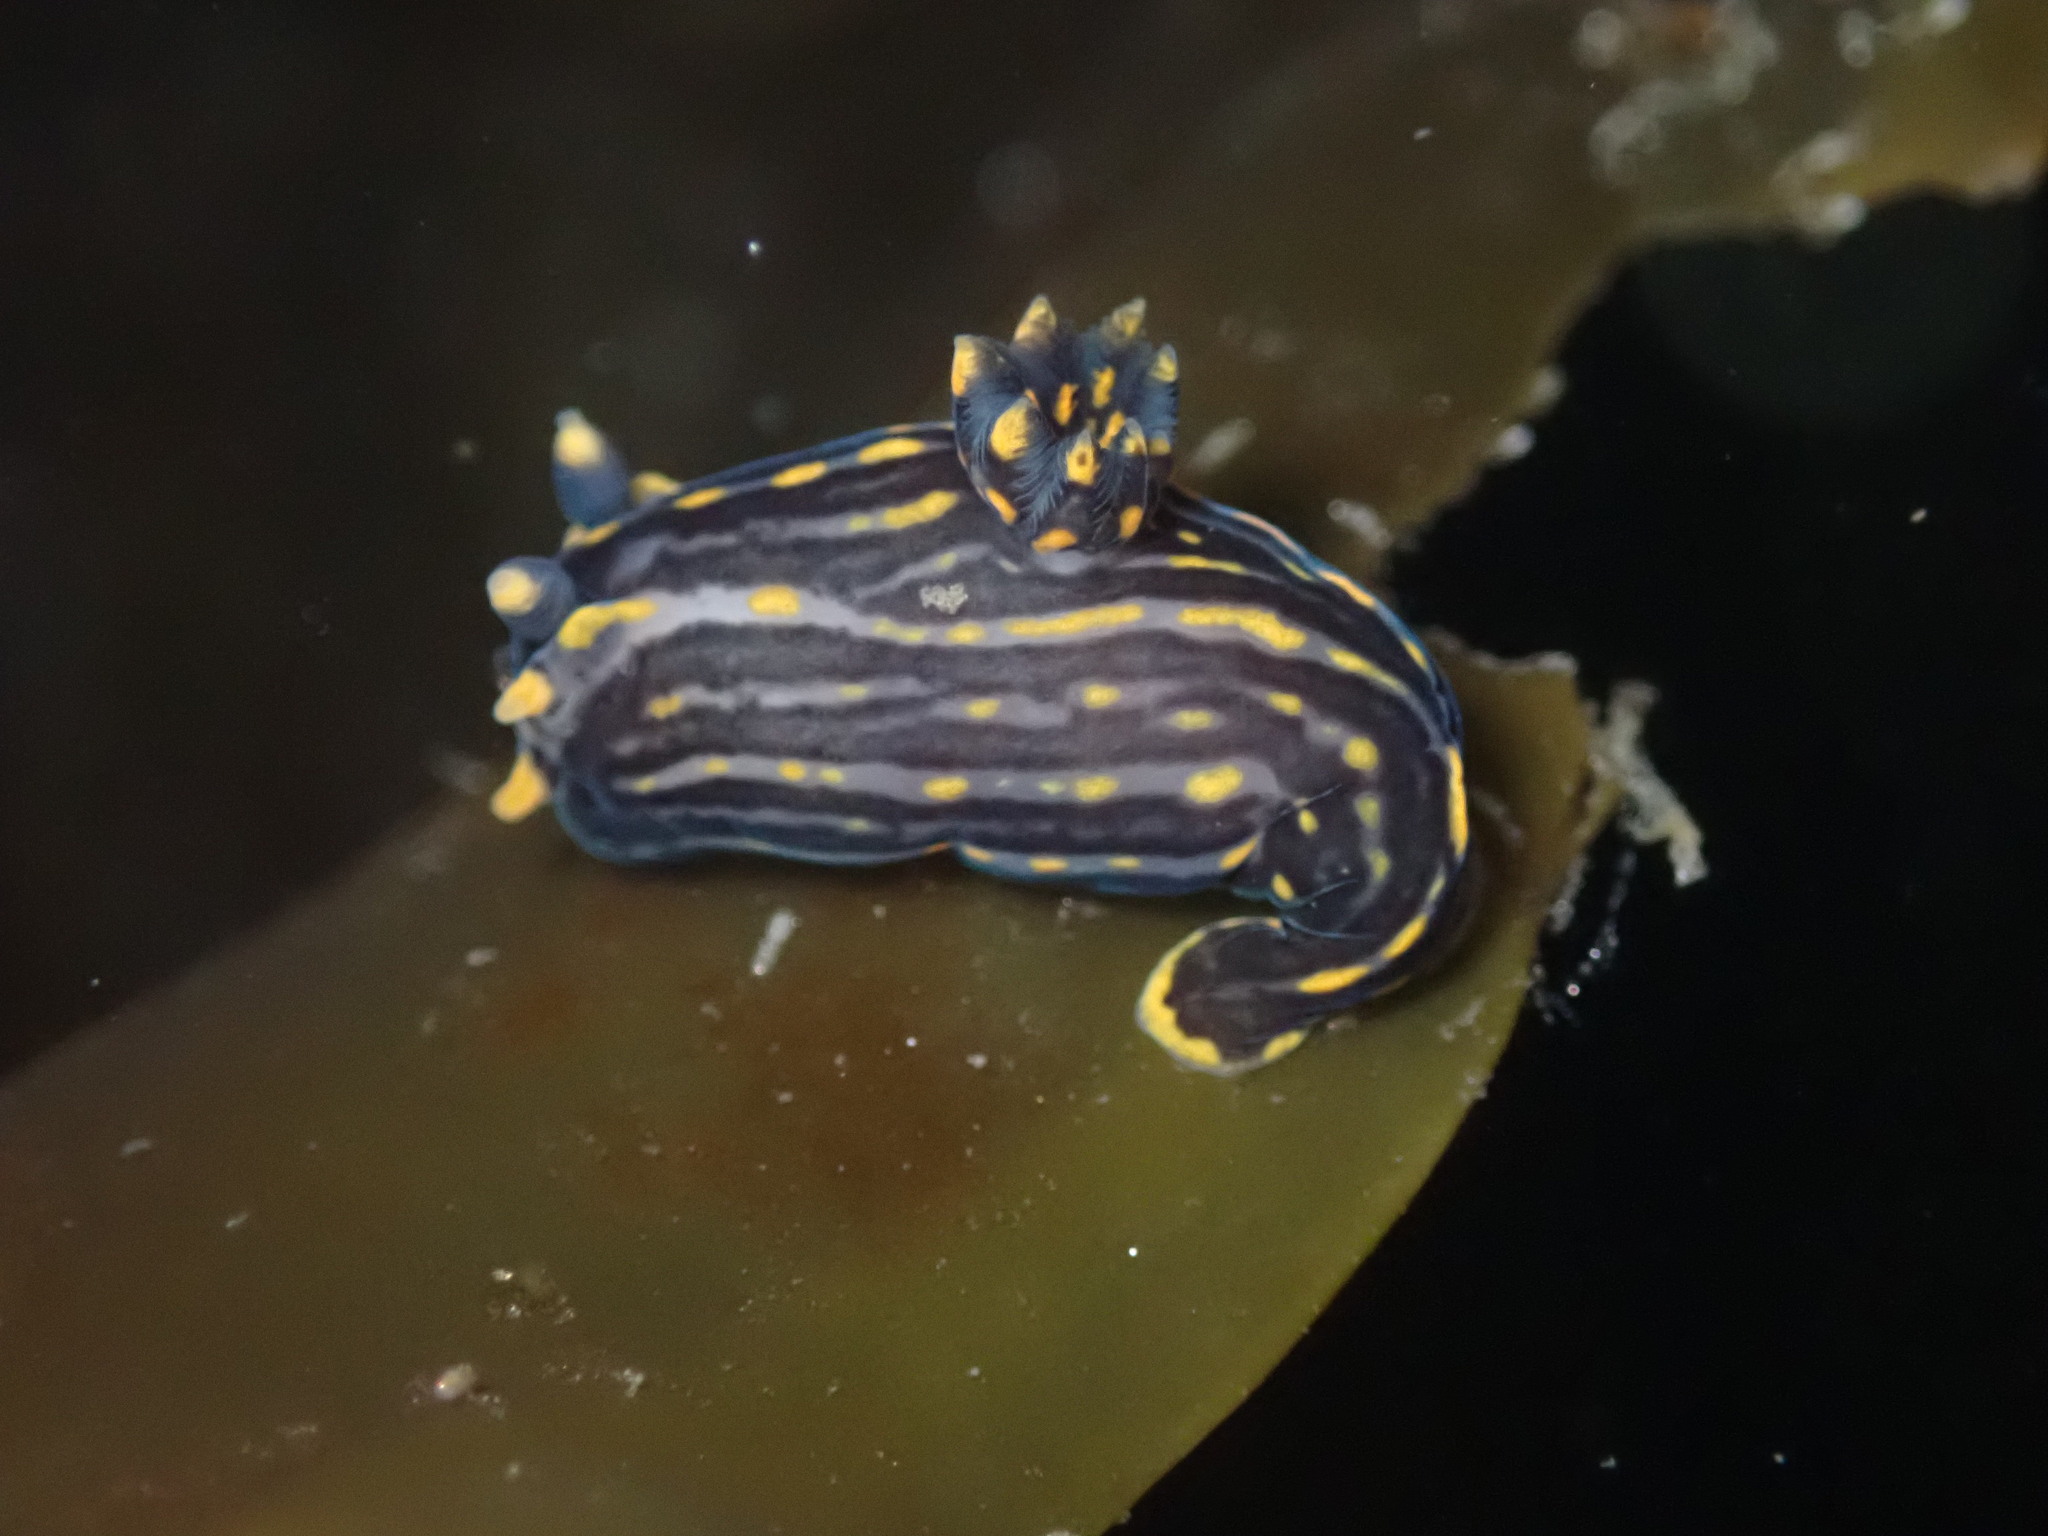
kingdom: Animalia
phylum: Mollusca
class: Gastropoda
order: Nudibranchia
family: Polyceridae
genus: Polycera
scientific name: Polycera atra
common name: Orange-spike polycera
